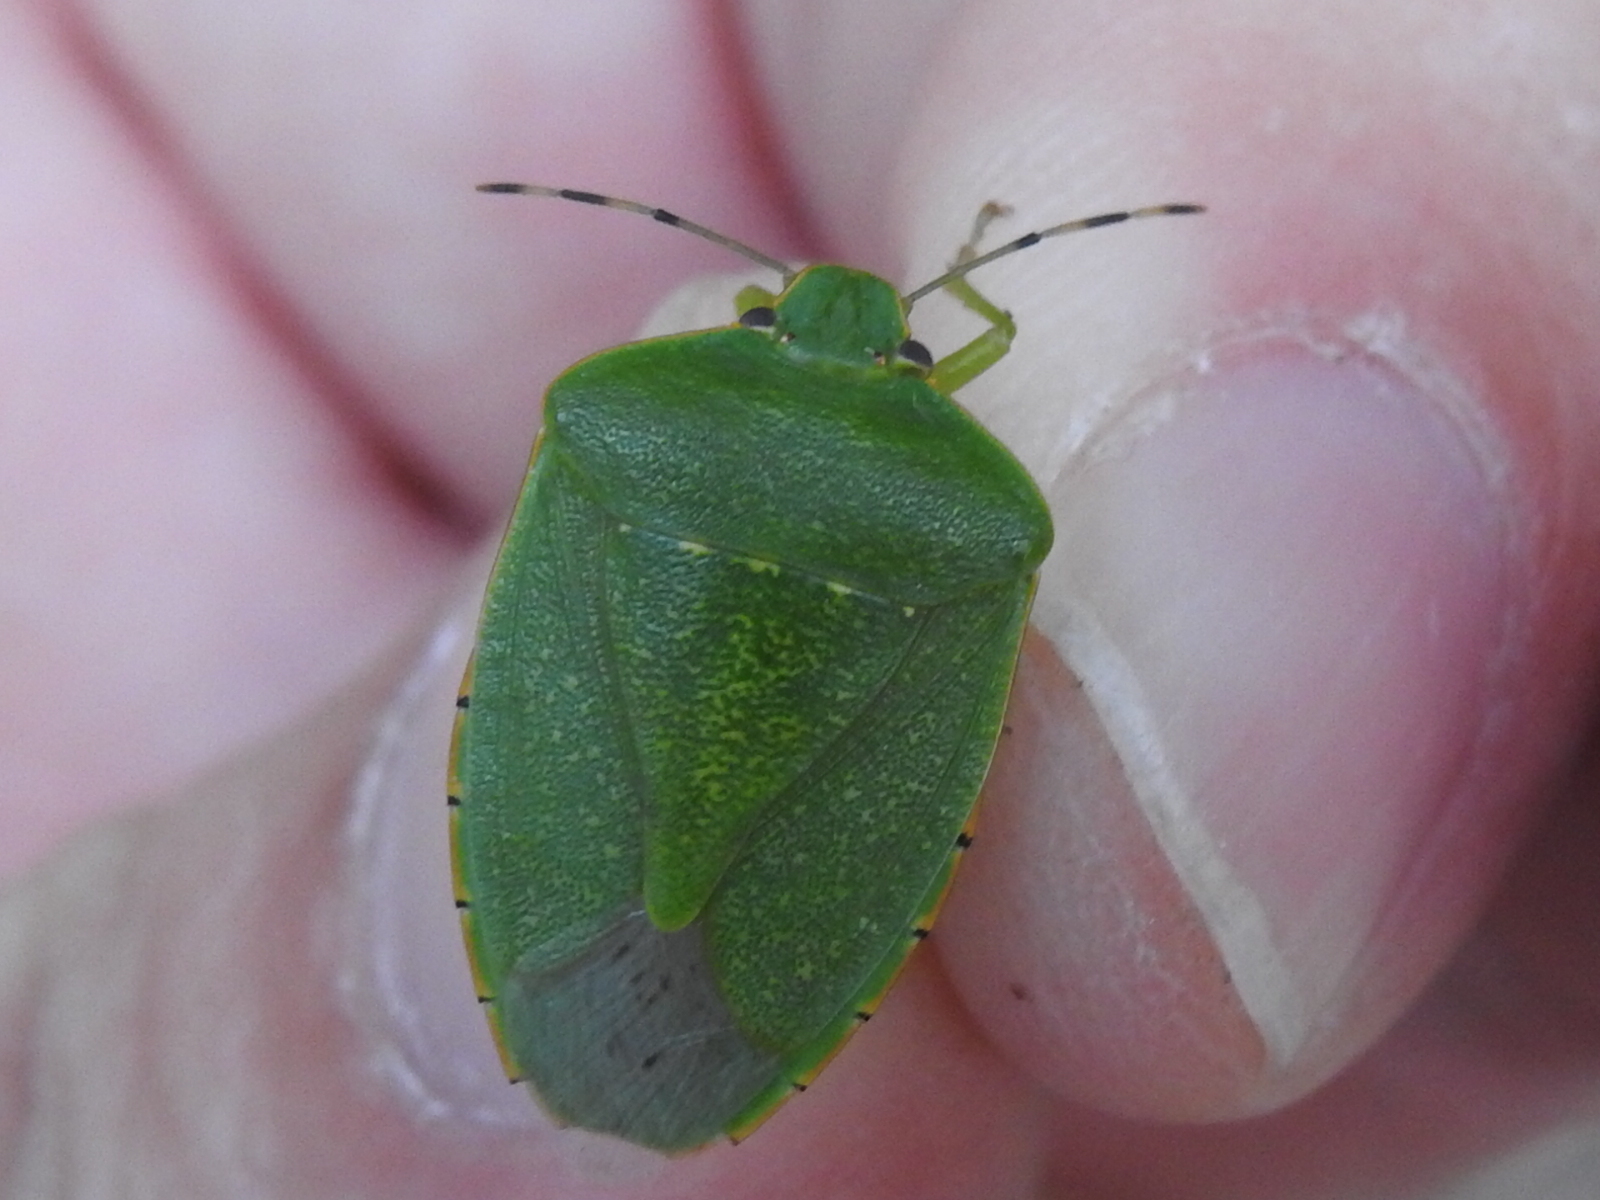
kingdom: Animalia
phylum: Arthropoda
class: Insecta
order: Hemiptera
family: Pentatomidae
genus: Chinavia
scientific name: Chinavia hilaris
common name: Green stink bug
